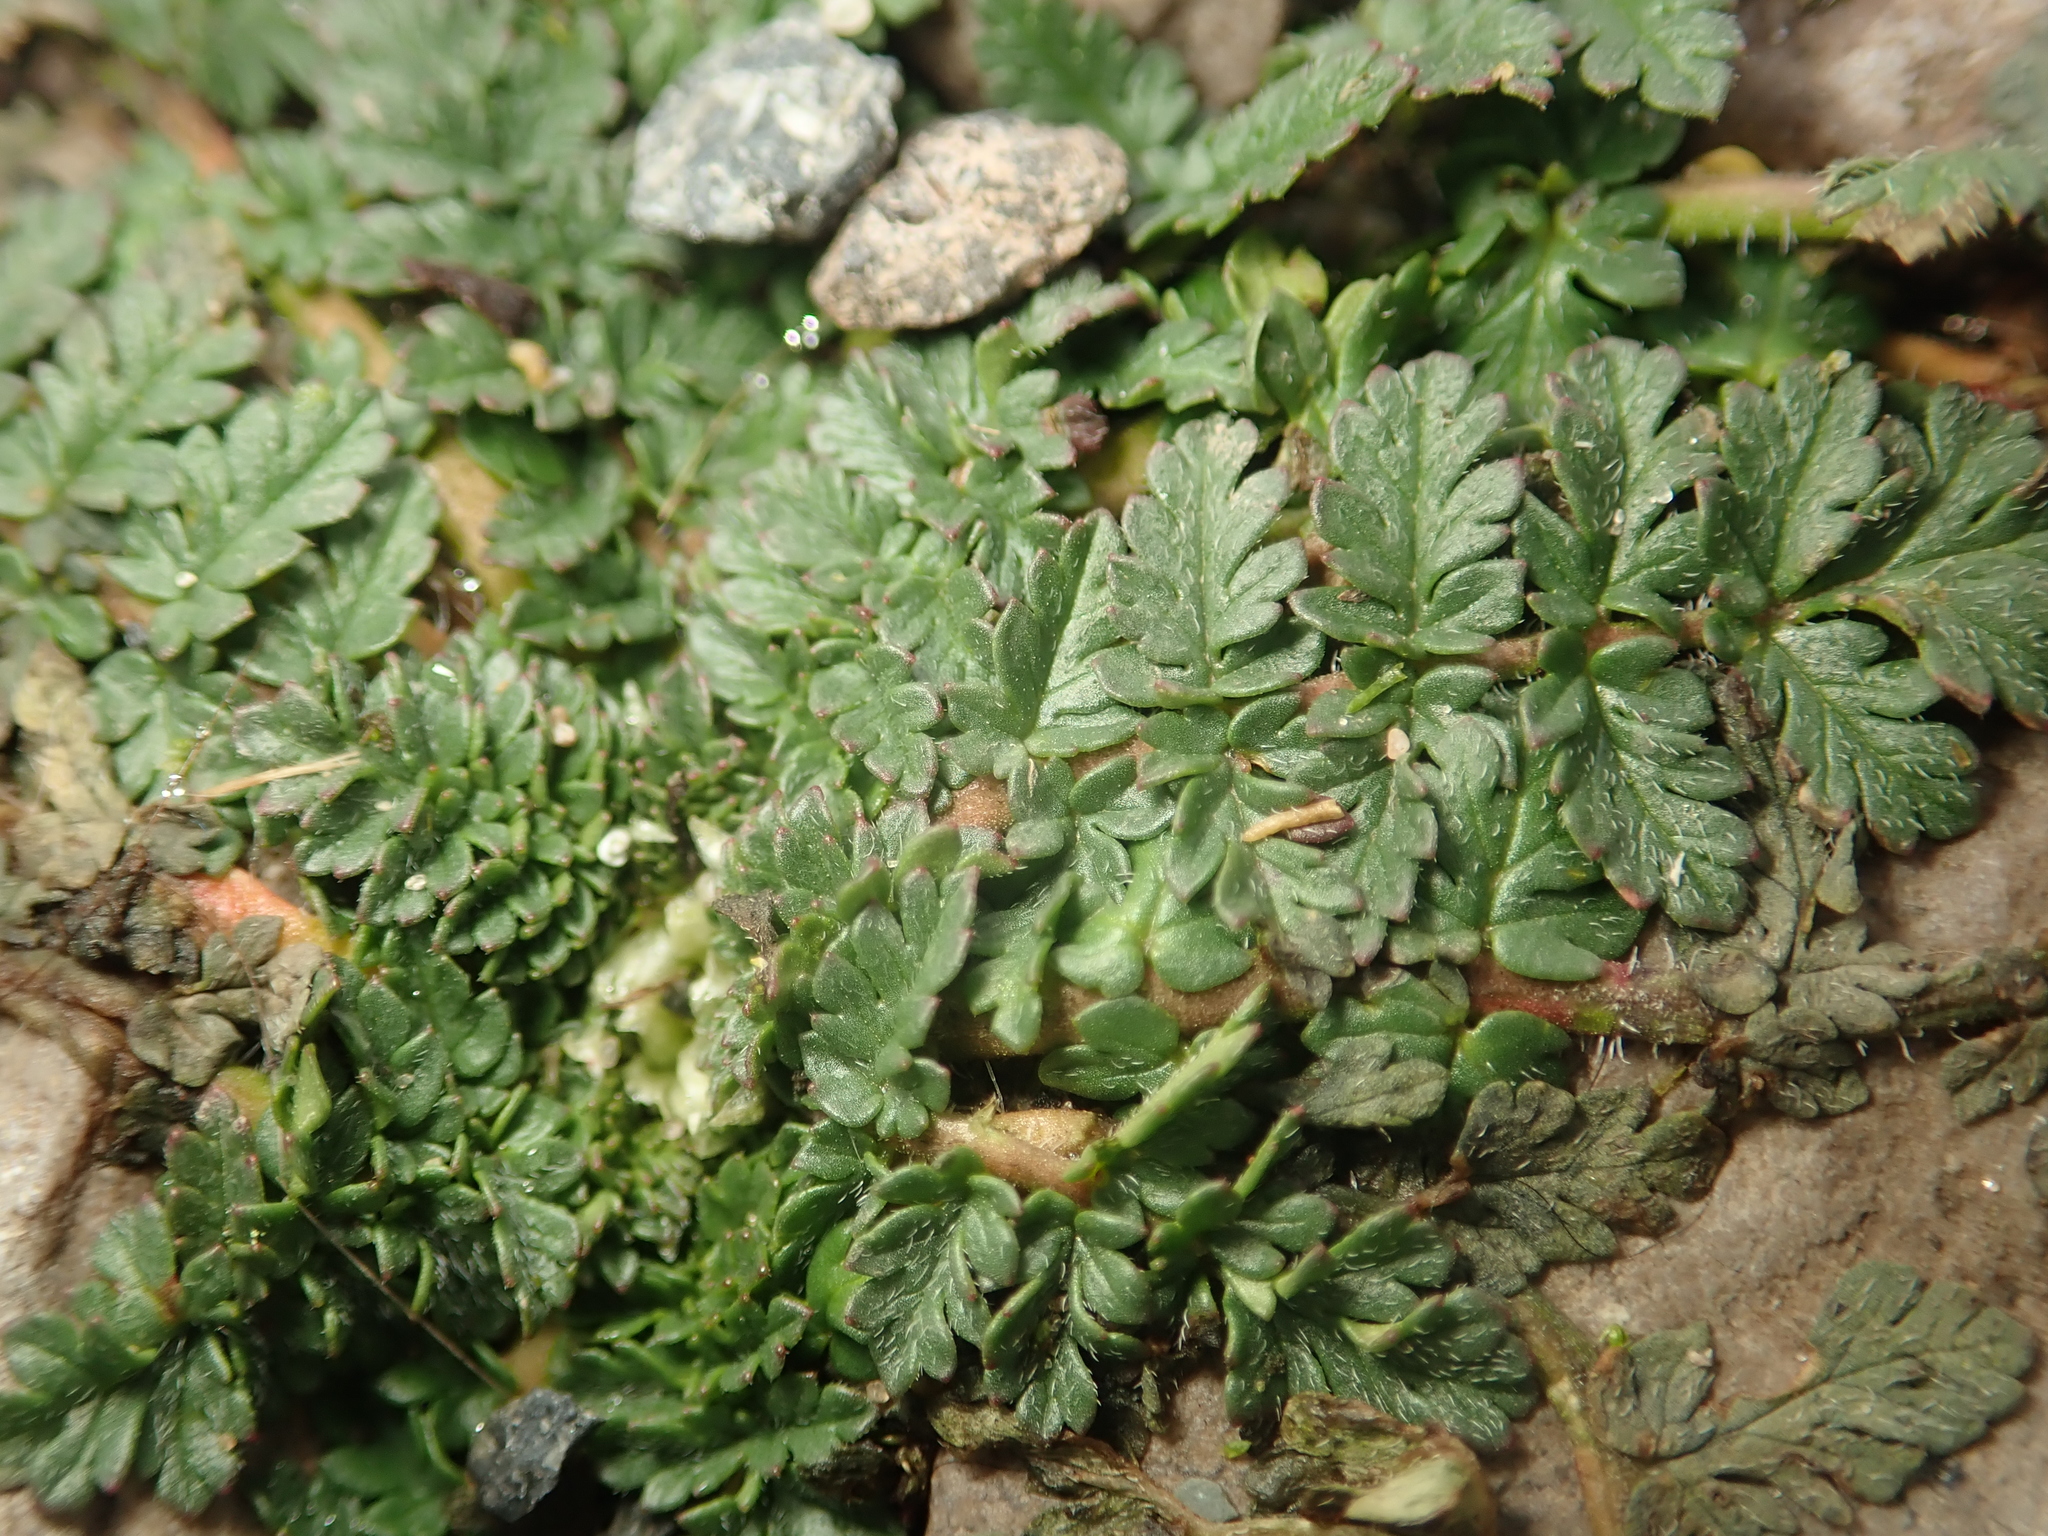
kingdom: Plantae
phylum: Tracheophyta
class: Magnoliopsida
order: Geraniales
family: Geraniaceae
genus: Erodium
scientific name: Erodium cicutarium
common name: Common stork's-bill
